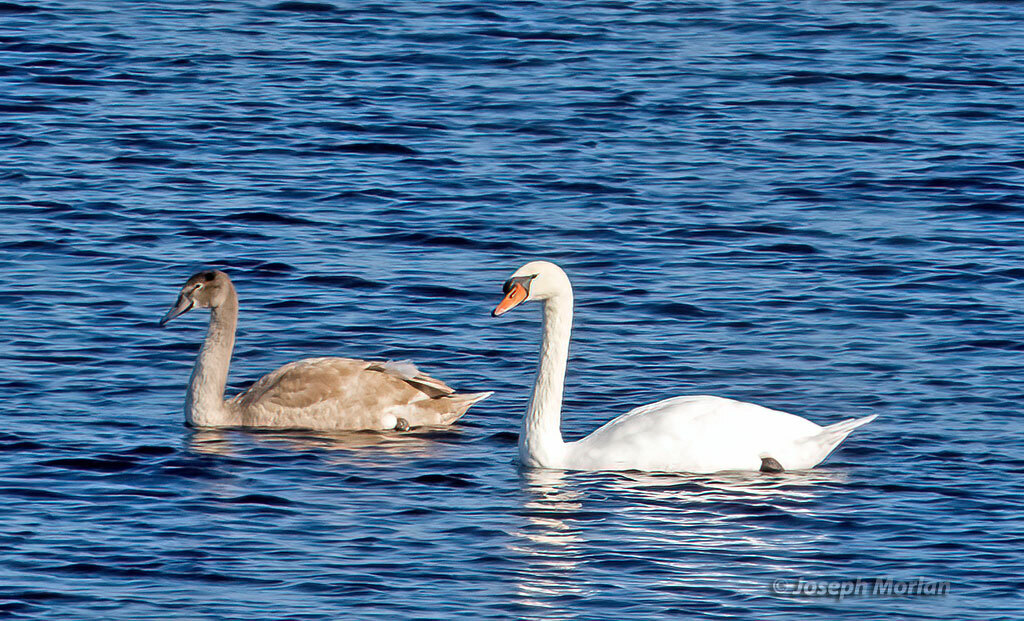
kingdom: Animalia
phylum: Chordata
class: Aves
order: Anseriformes
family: Anatidae
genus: Cygnus
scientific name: Cygnus olor
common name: Mute swan
